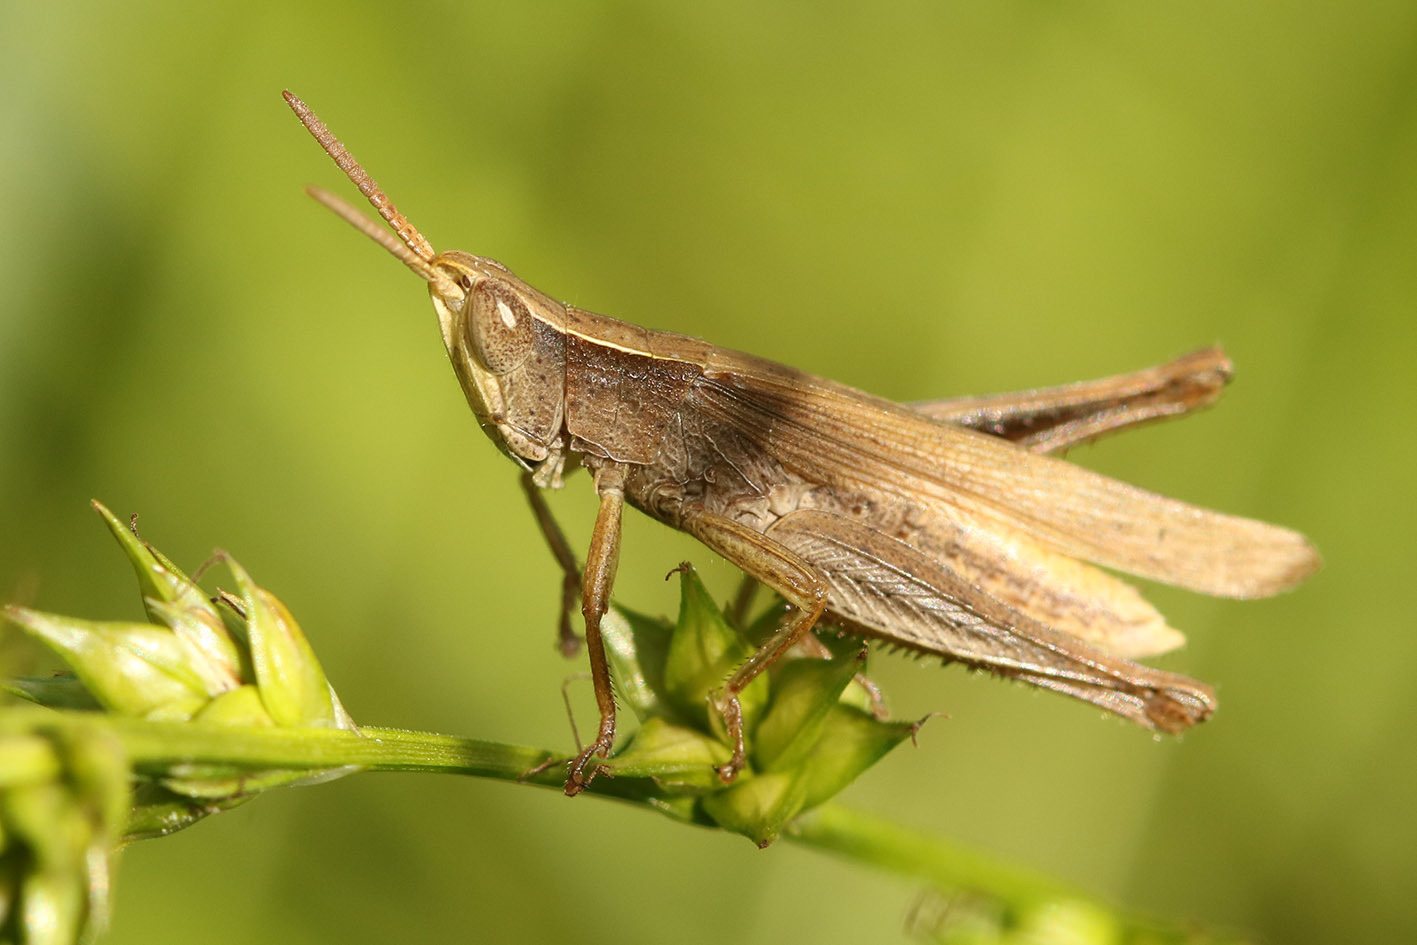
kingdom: Animalia
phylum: Arthropoda
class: Insecta
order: Orthoptera
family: Acrididae
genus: Laplatacris
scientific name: Laplatacris dispar
